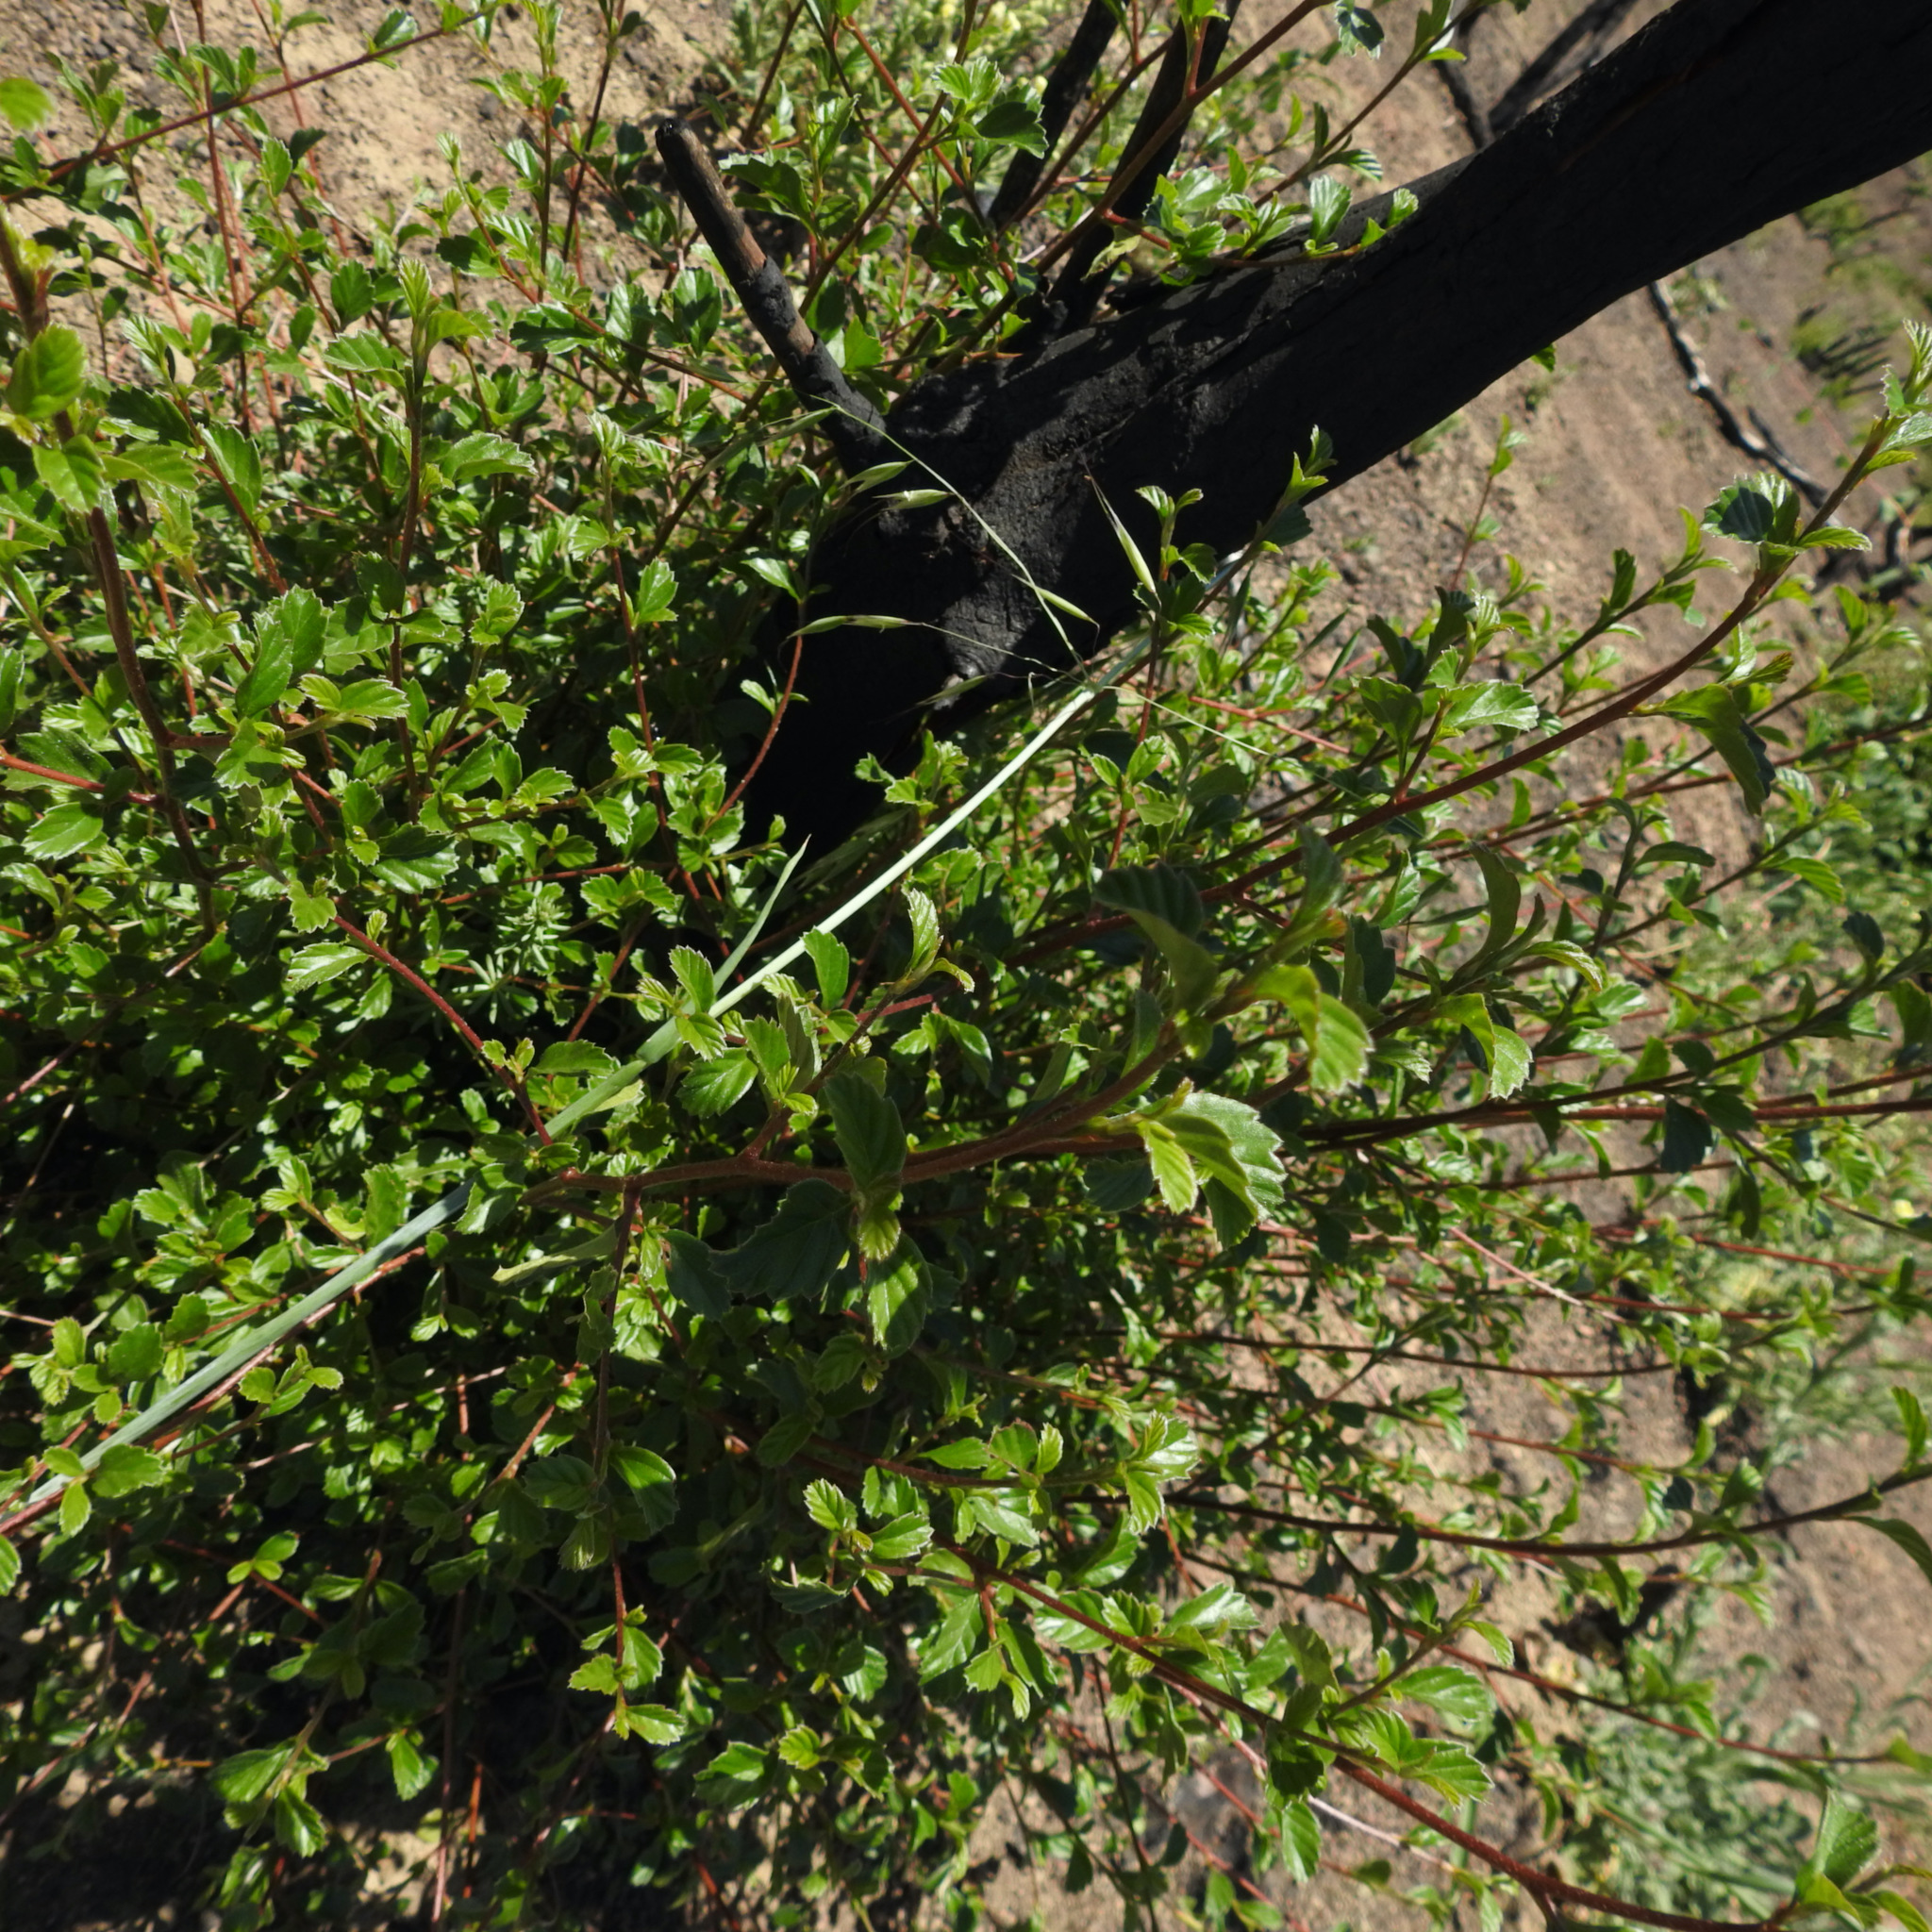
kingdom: Plantae
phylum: Tracheophyta
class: Magnoliopsida
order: Rosales
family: Rosaceae
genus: Cercocarpus
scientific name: Cercocarpus betuloides
